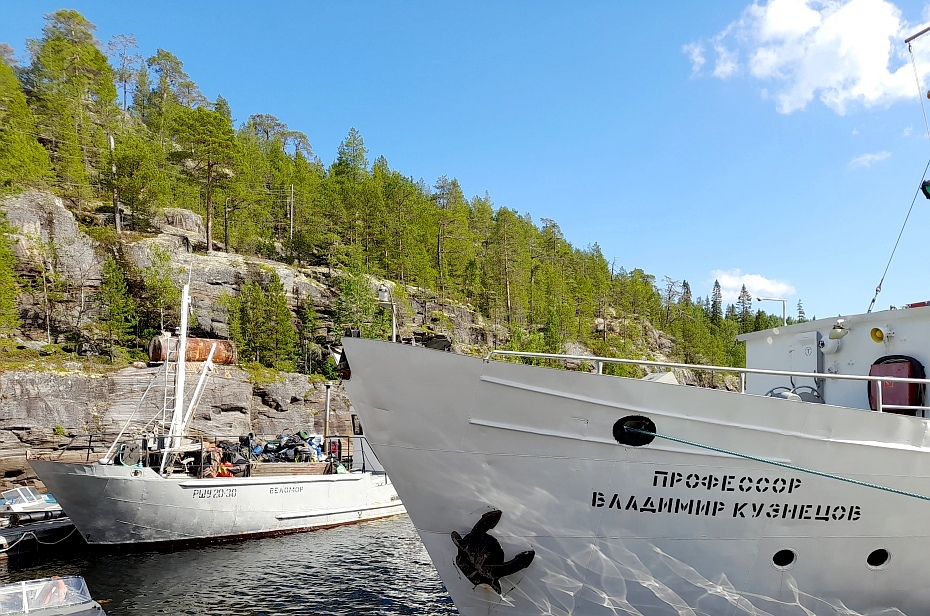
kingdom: Plantae
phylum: Tracheophyta
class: Pinopsida
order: Pinales
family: Pinaceae
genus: Pinus
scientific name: Pinus sylvestris
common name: Scots pine
